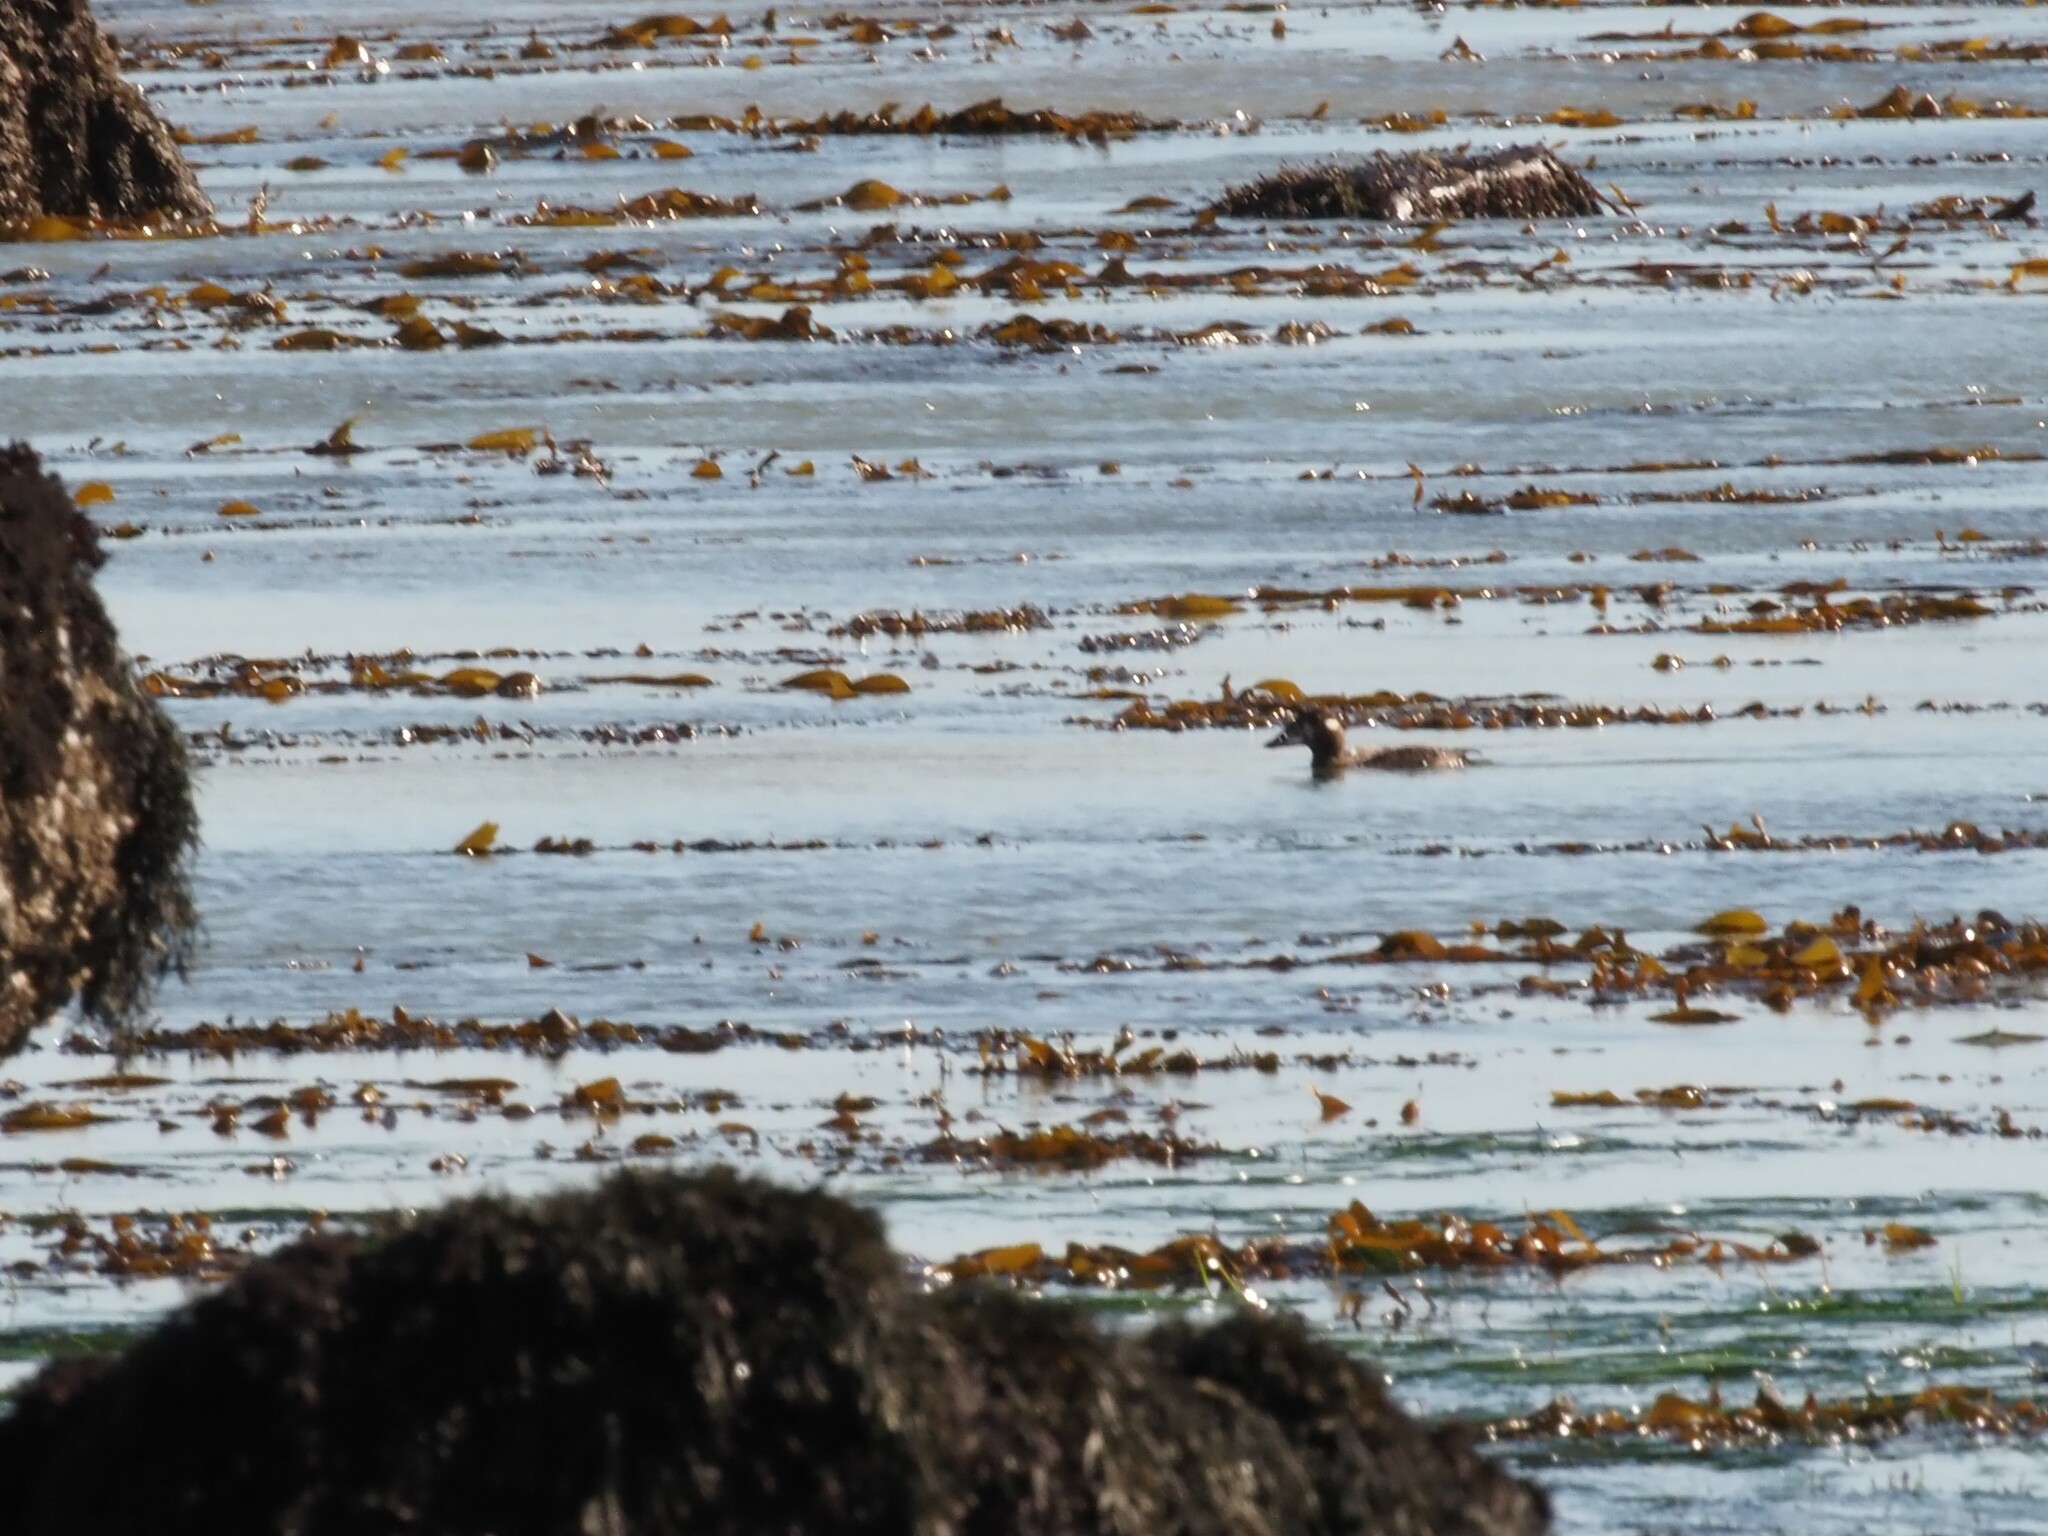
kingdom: Animalia
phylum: Chordata
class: Aves
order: Anseriformes
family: Anatidae
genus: Melanitta
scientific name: Melanitta perspicillata
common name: Surf scoter
